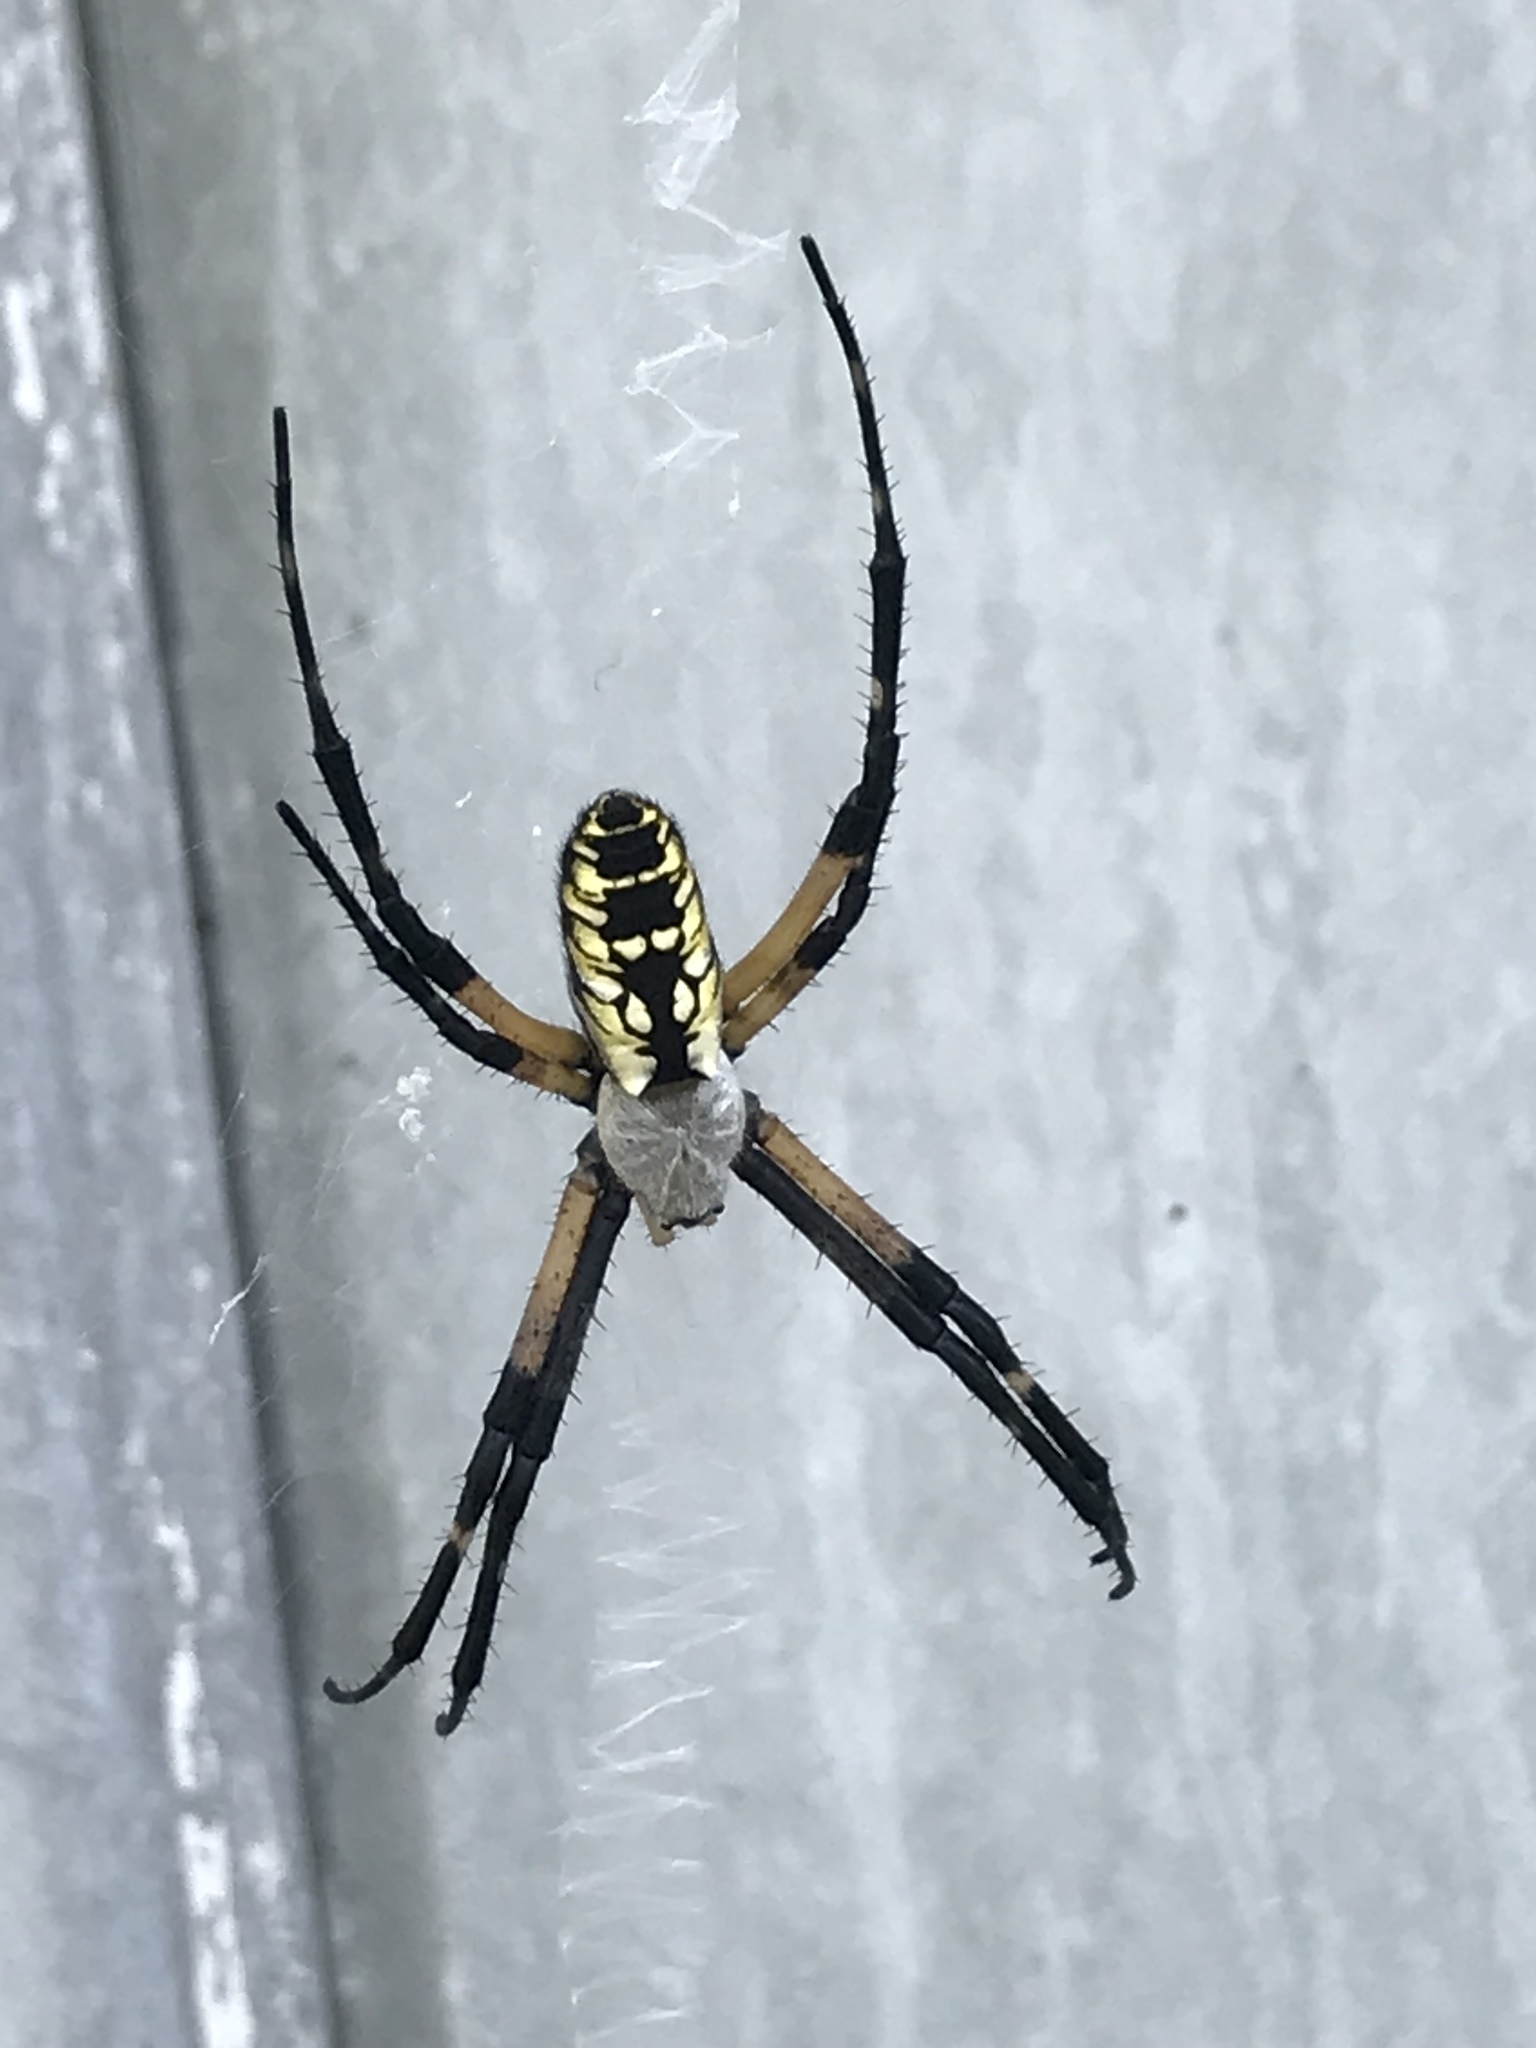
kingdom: Animalia
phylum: Arthropoda
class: Arachnida
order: Araneae
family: Araneidae
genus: Argiope
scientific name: Argiope aurantia
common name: Orb weavers
